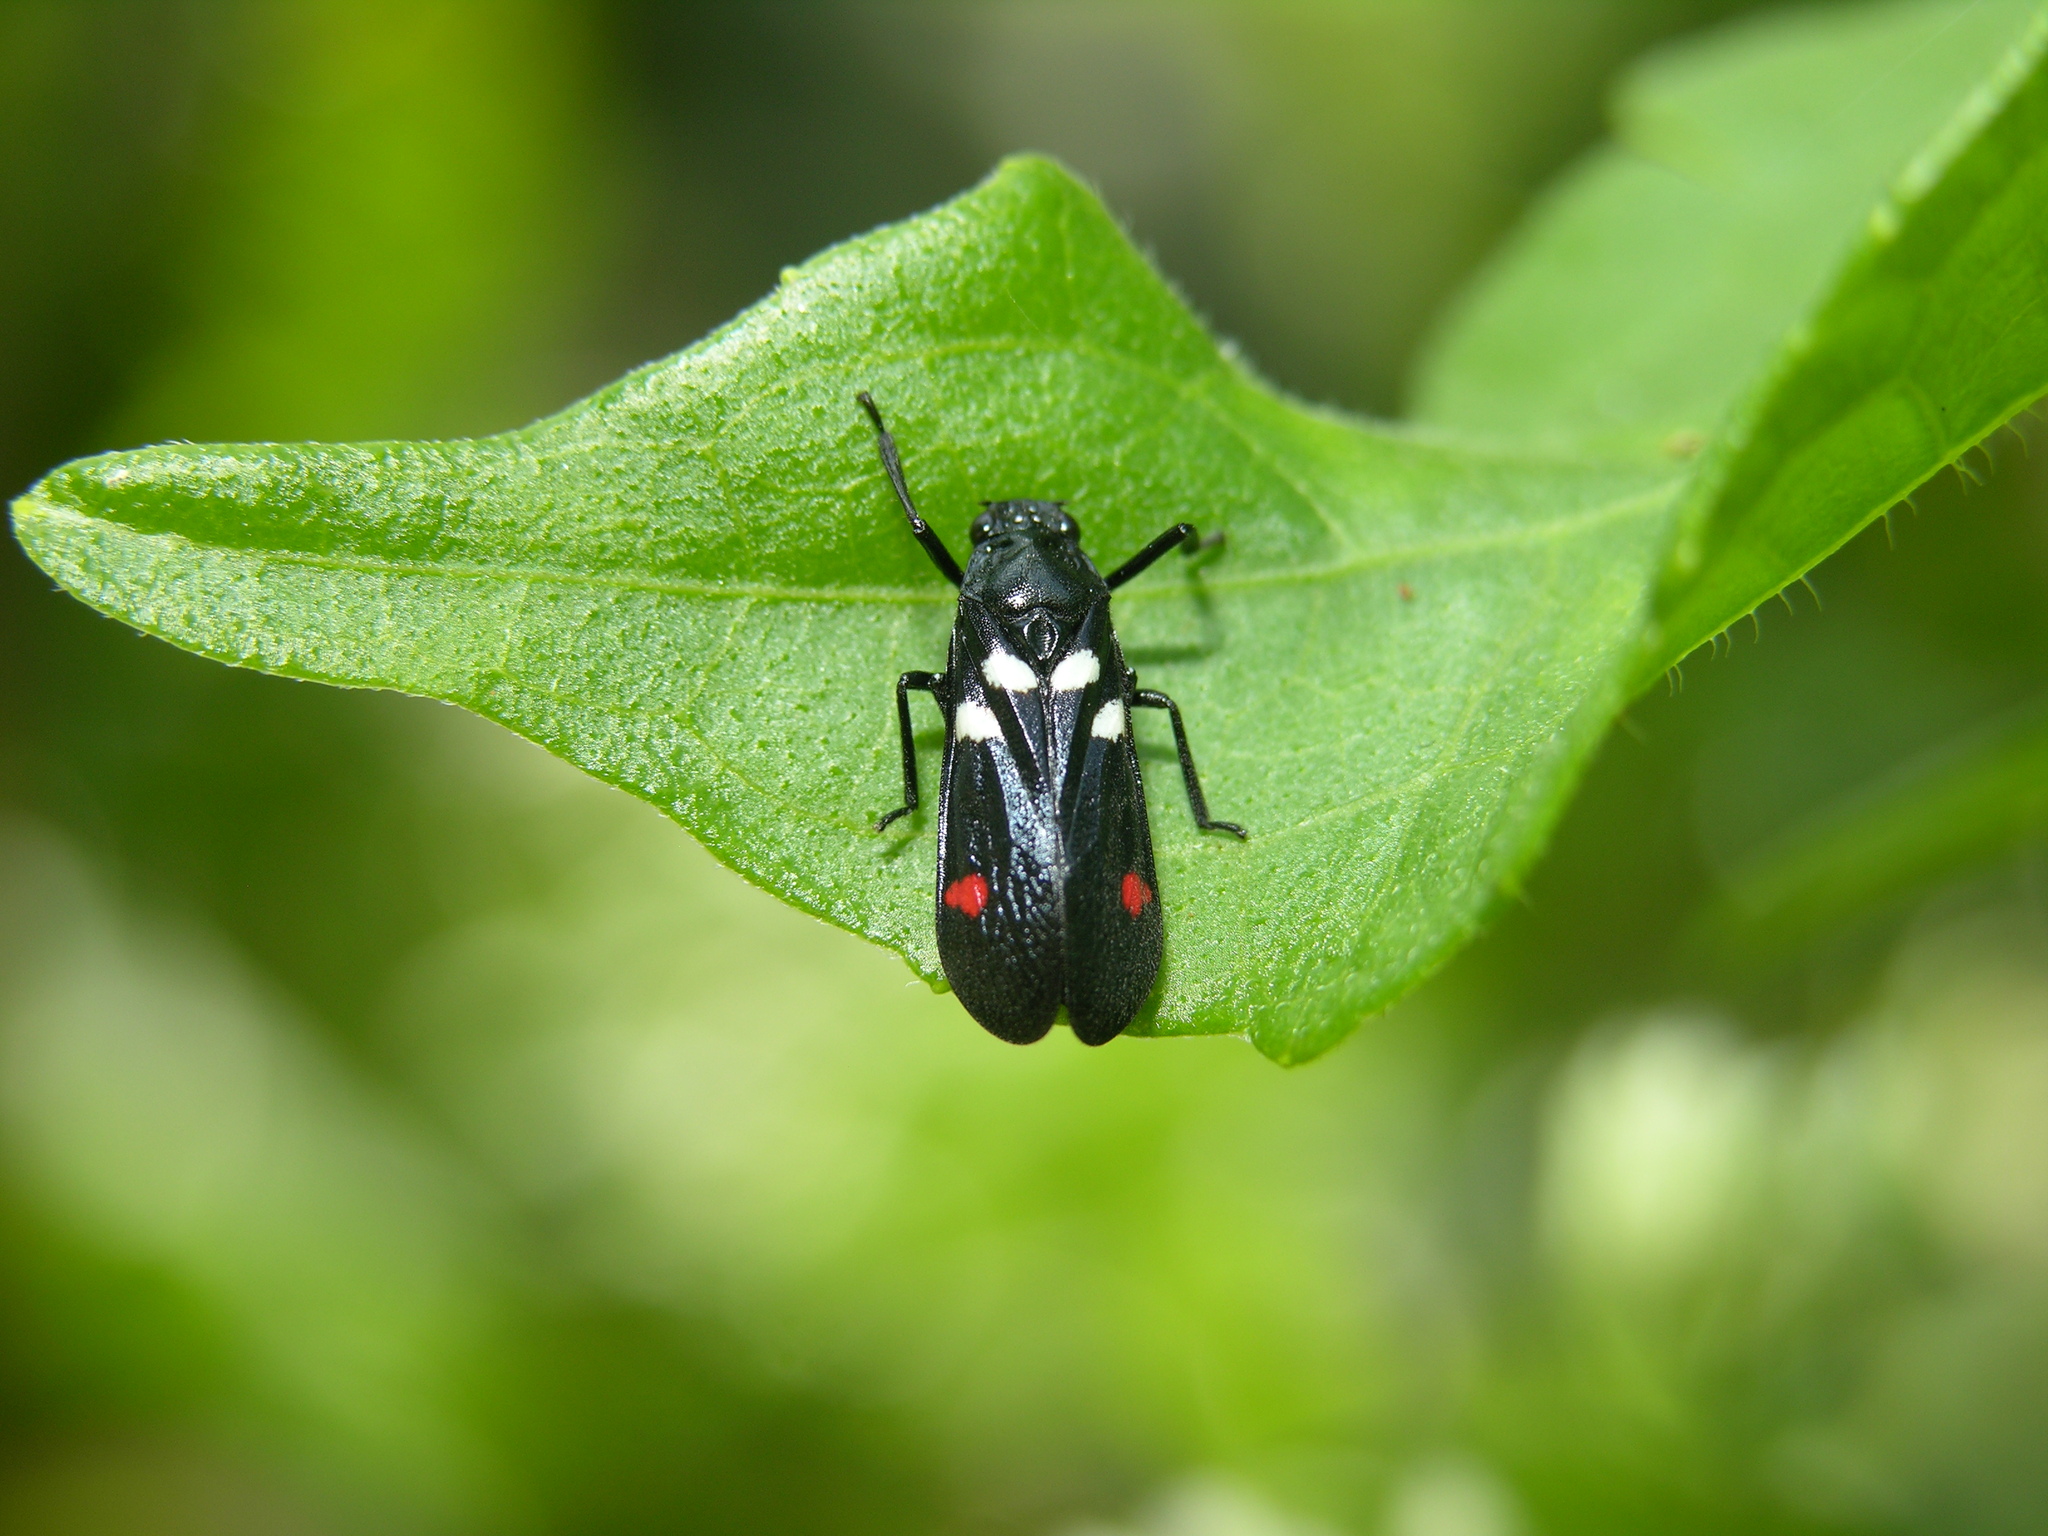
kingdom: Animalia
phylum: Arthropoda
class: Insecta
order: Hemiptera
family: Cercopidae
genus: Callitettix
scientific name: Callitettix versicolor
